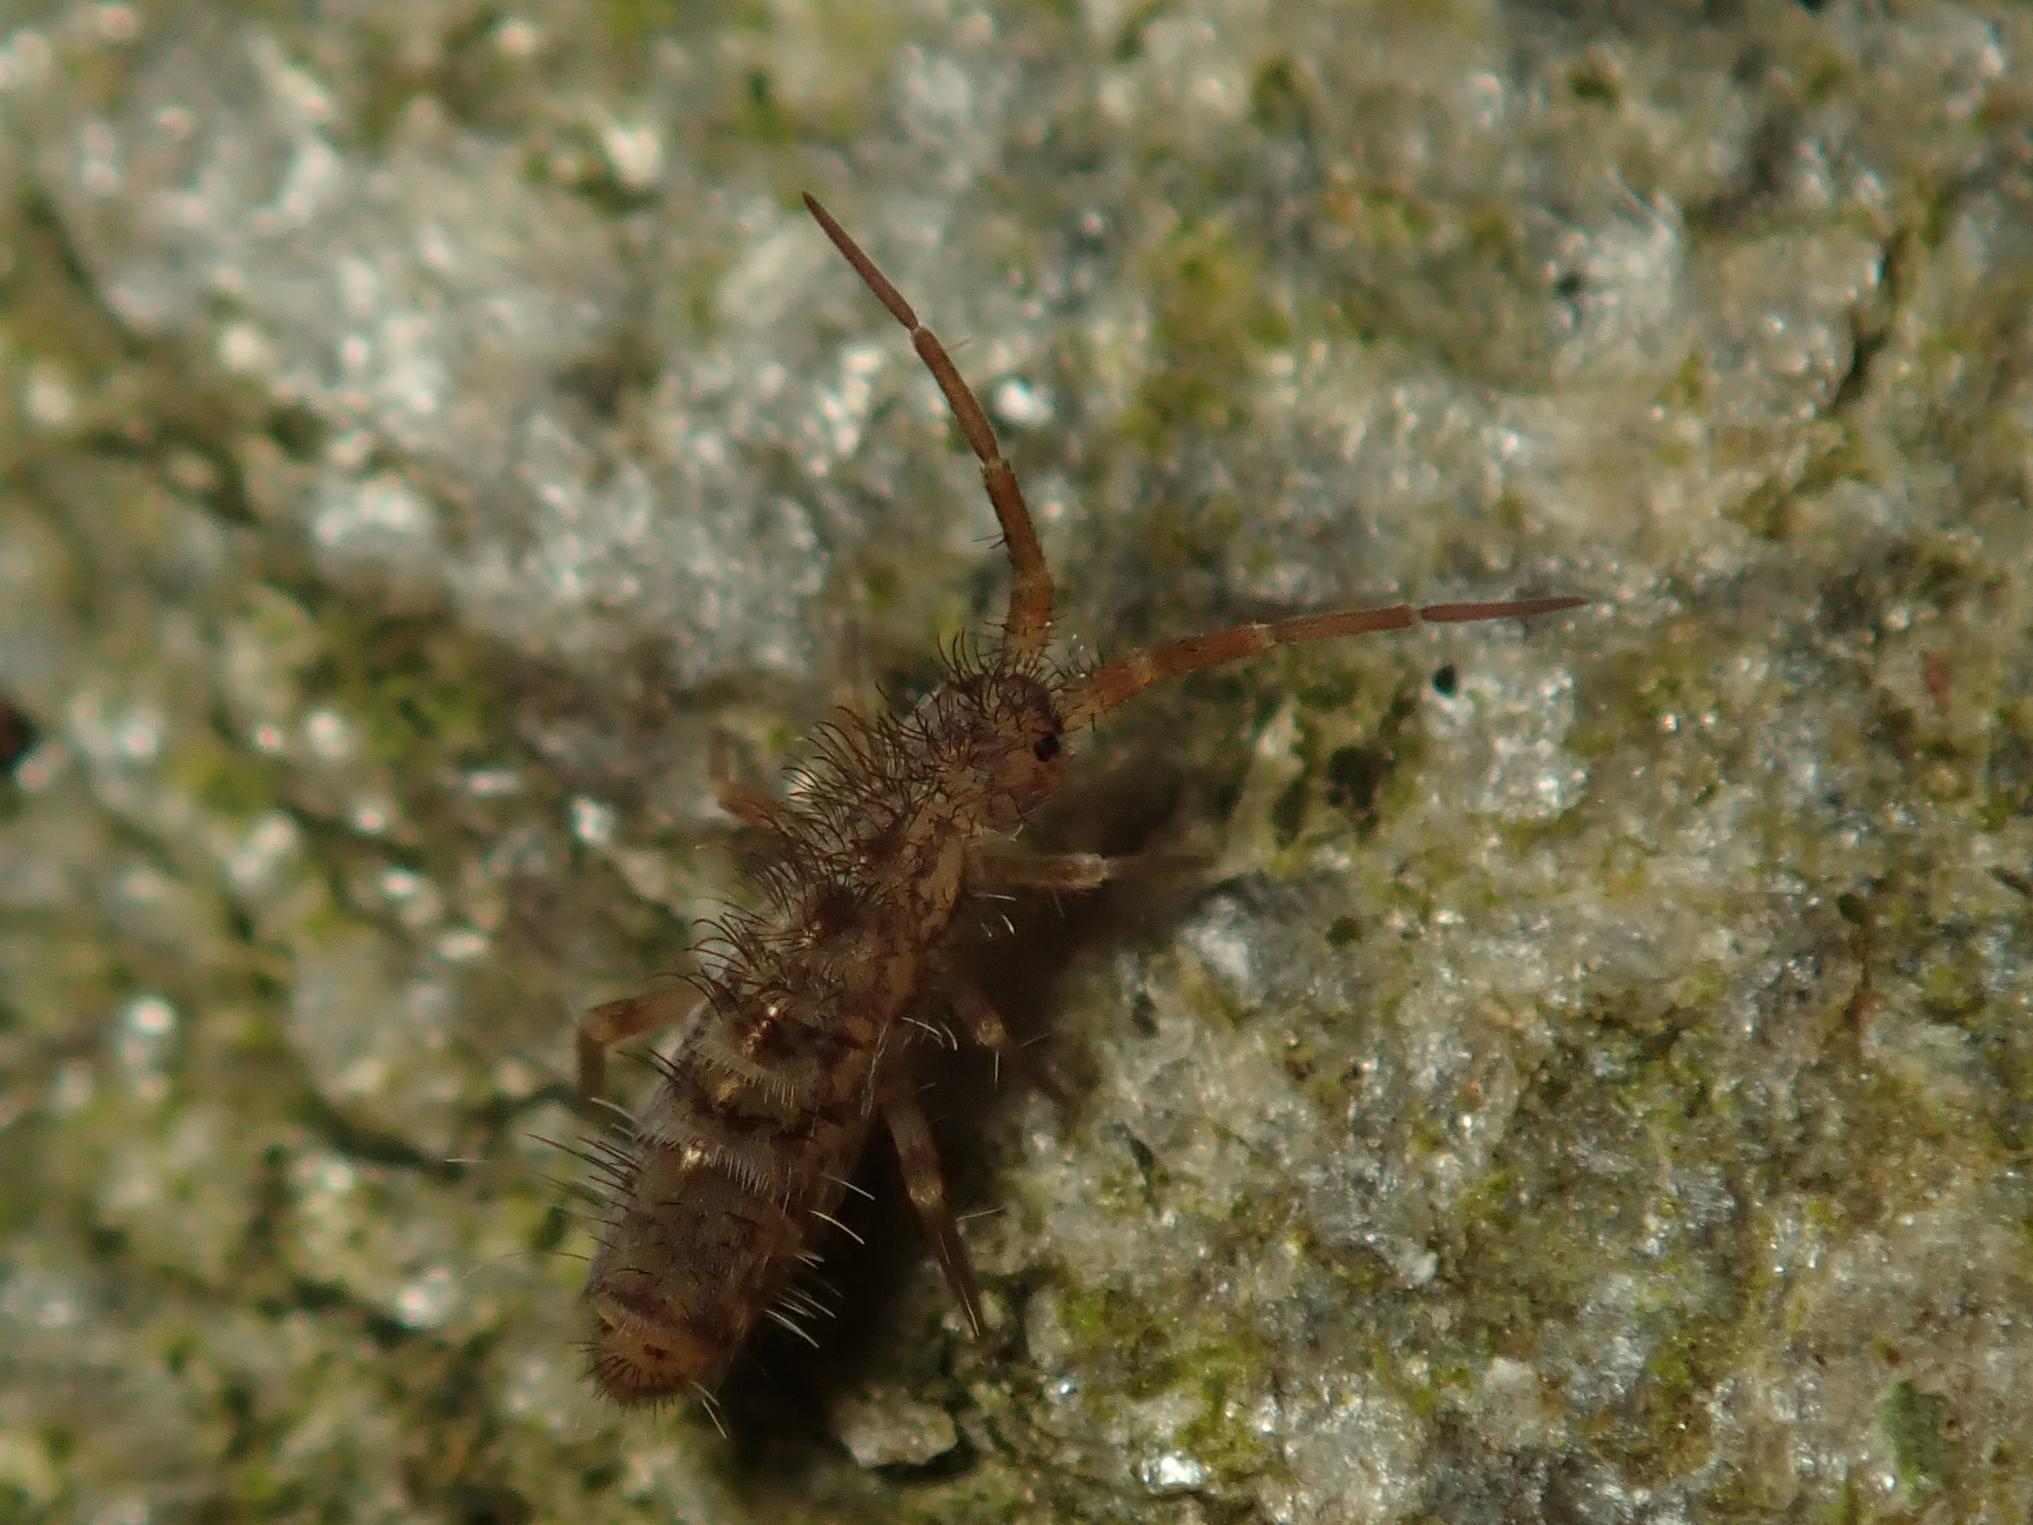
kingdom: Animalia
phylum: Arthropoda
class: Collembola
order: Entomobryomorpha
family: Orchesellidae
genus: Orchesella
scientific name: Orchesella villosa
